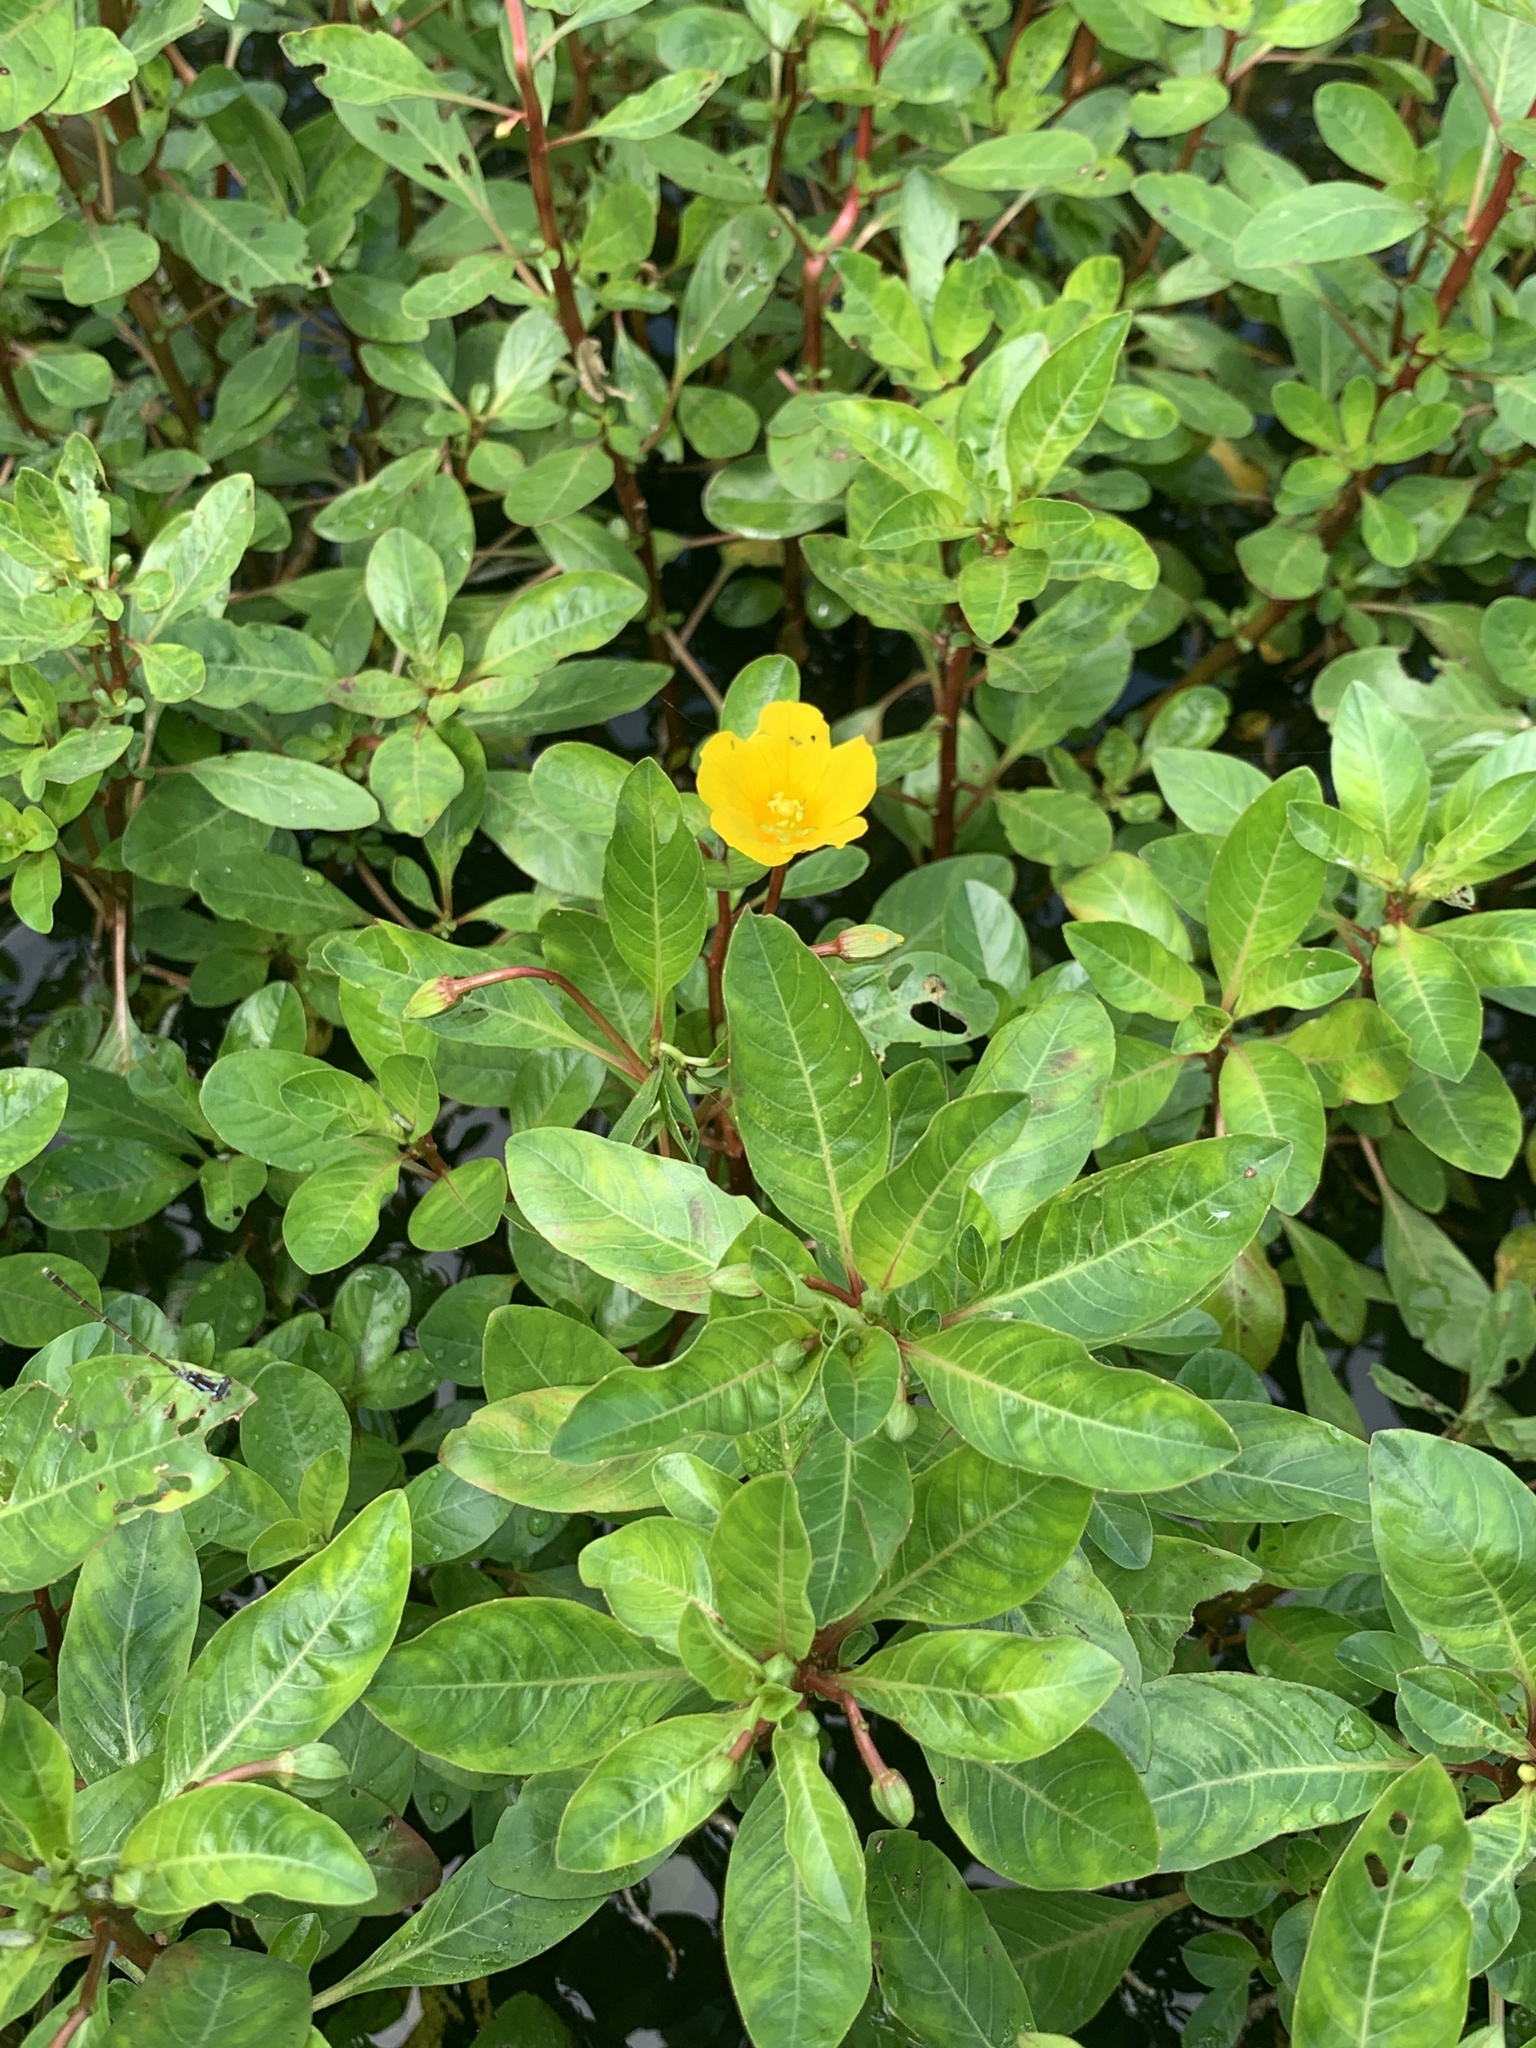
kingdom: Plantae
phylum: Tracheophyta
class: Magnoliopsida
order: Myrtales
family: Onagraceae
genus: Ludwigia
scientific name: Ludwigia peploides
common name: Floating primrose-willow
